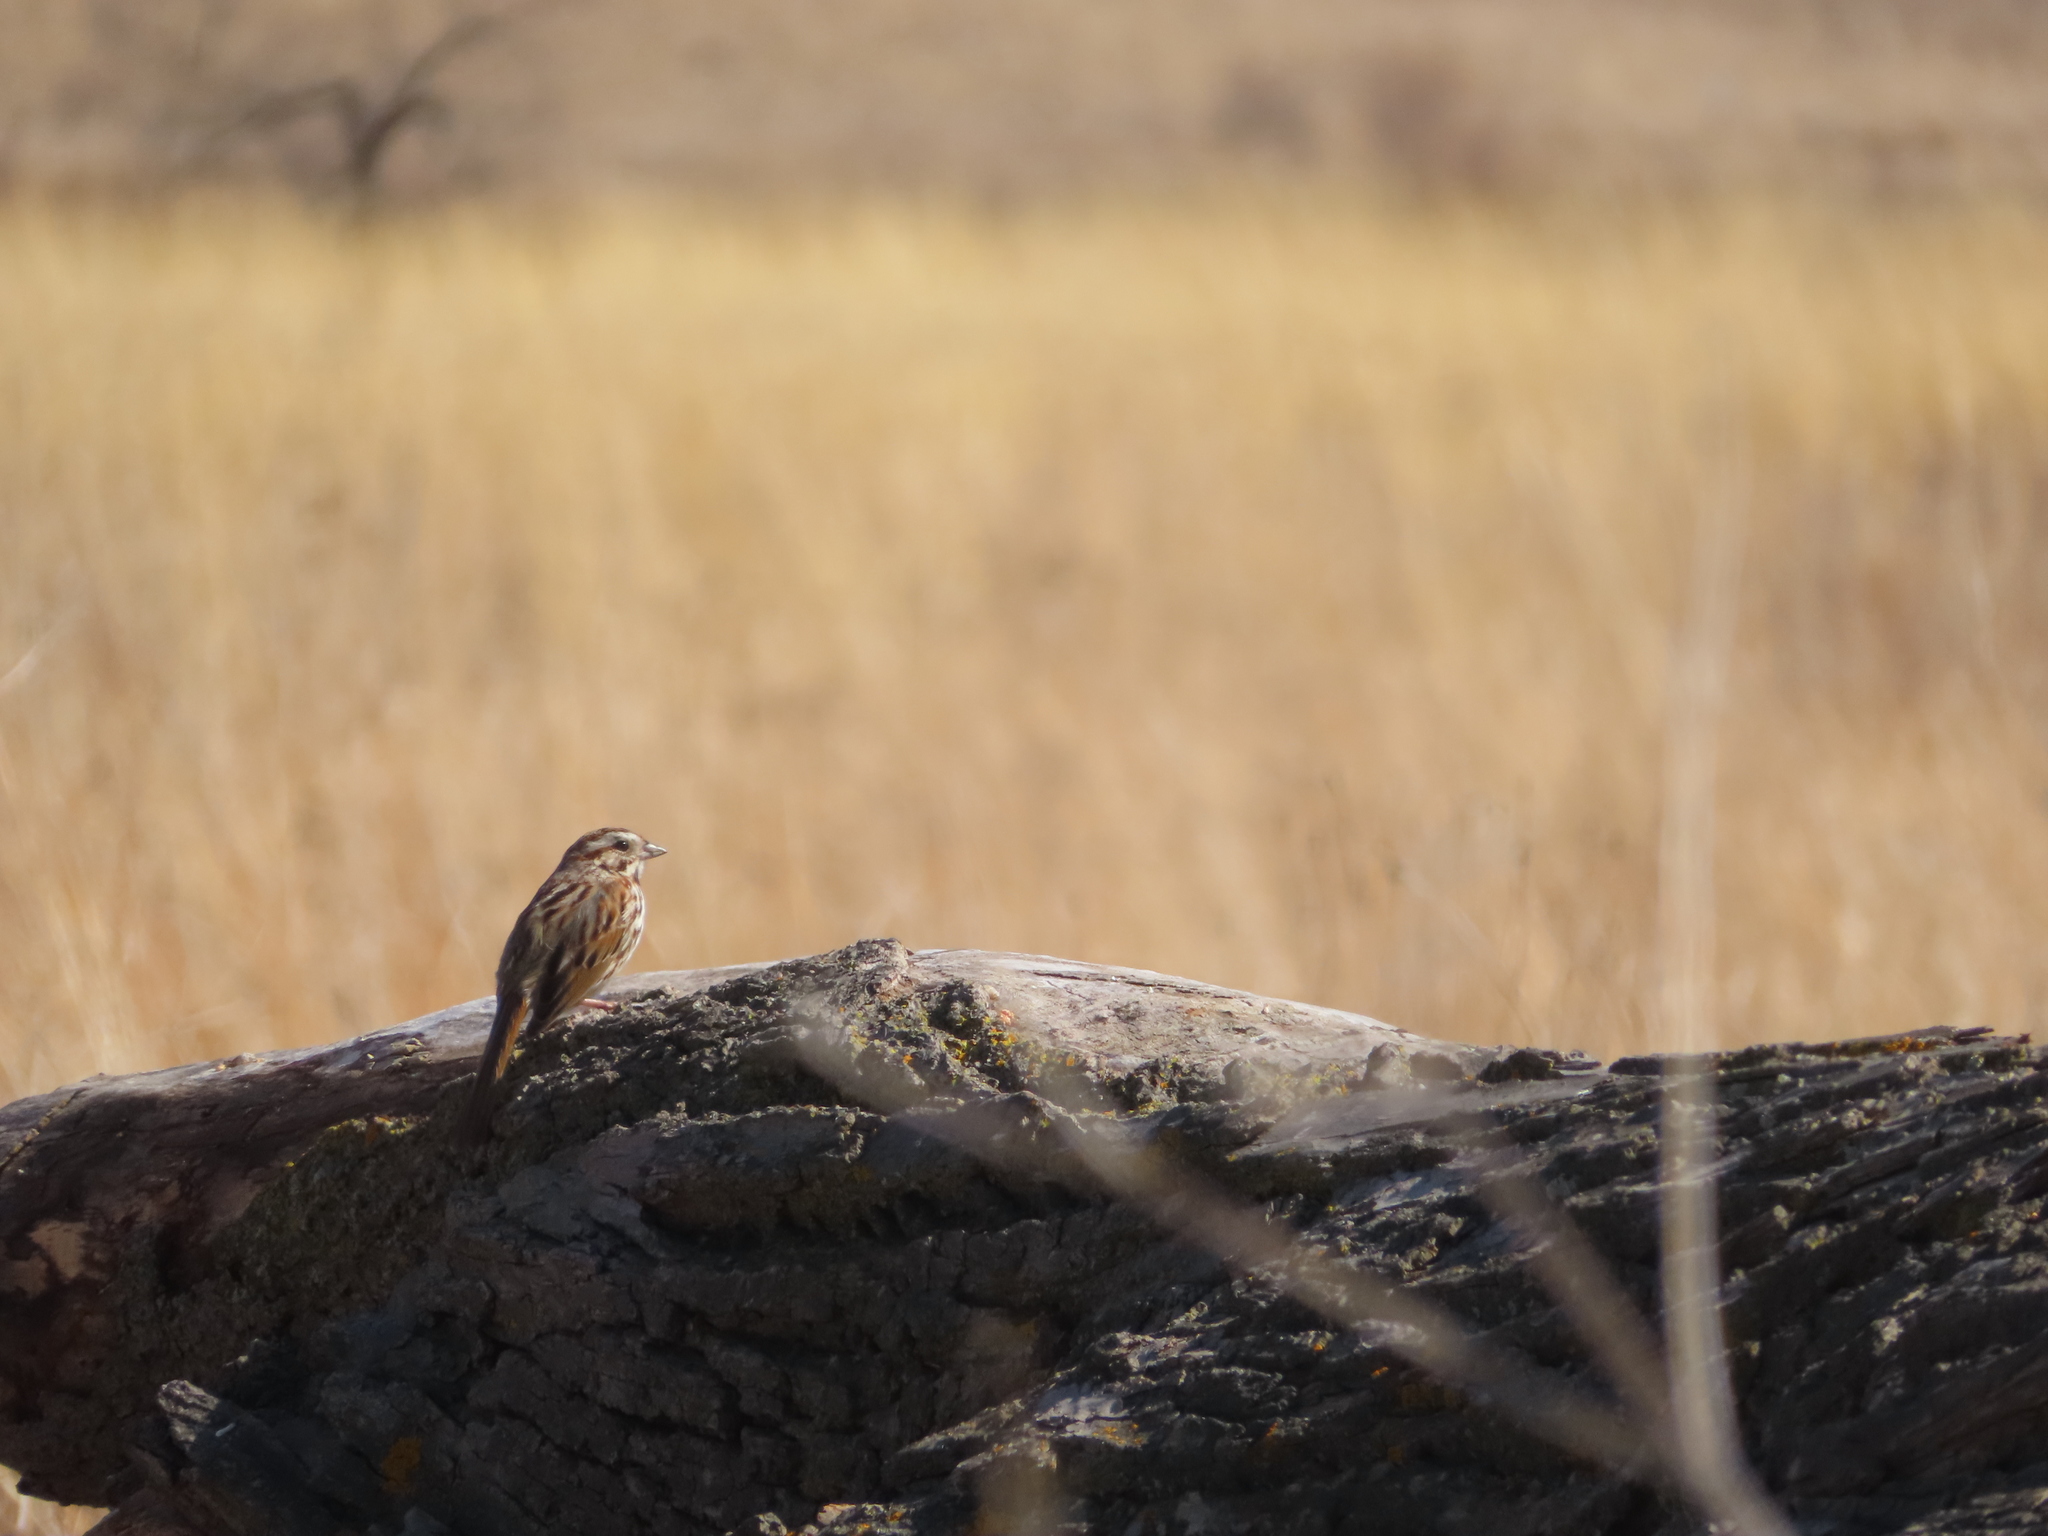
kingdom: Animalia
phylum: Chordata
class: Aves
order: Passeriformes
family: Passerellidae
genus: Melospiza
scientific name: Melospiza melodia
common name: Song sparrow
